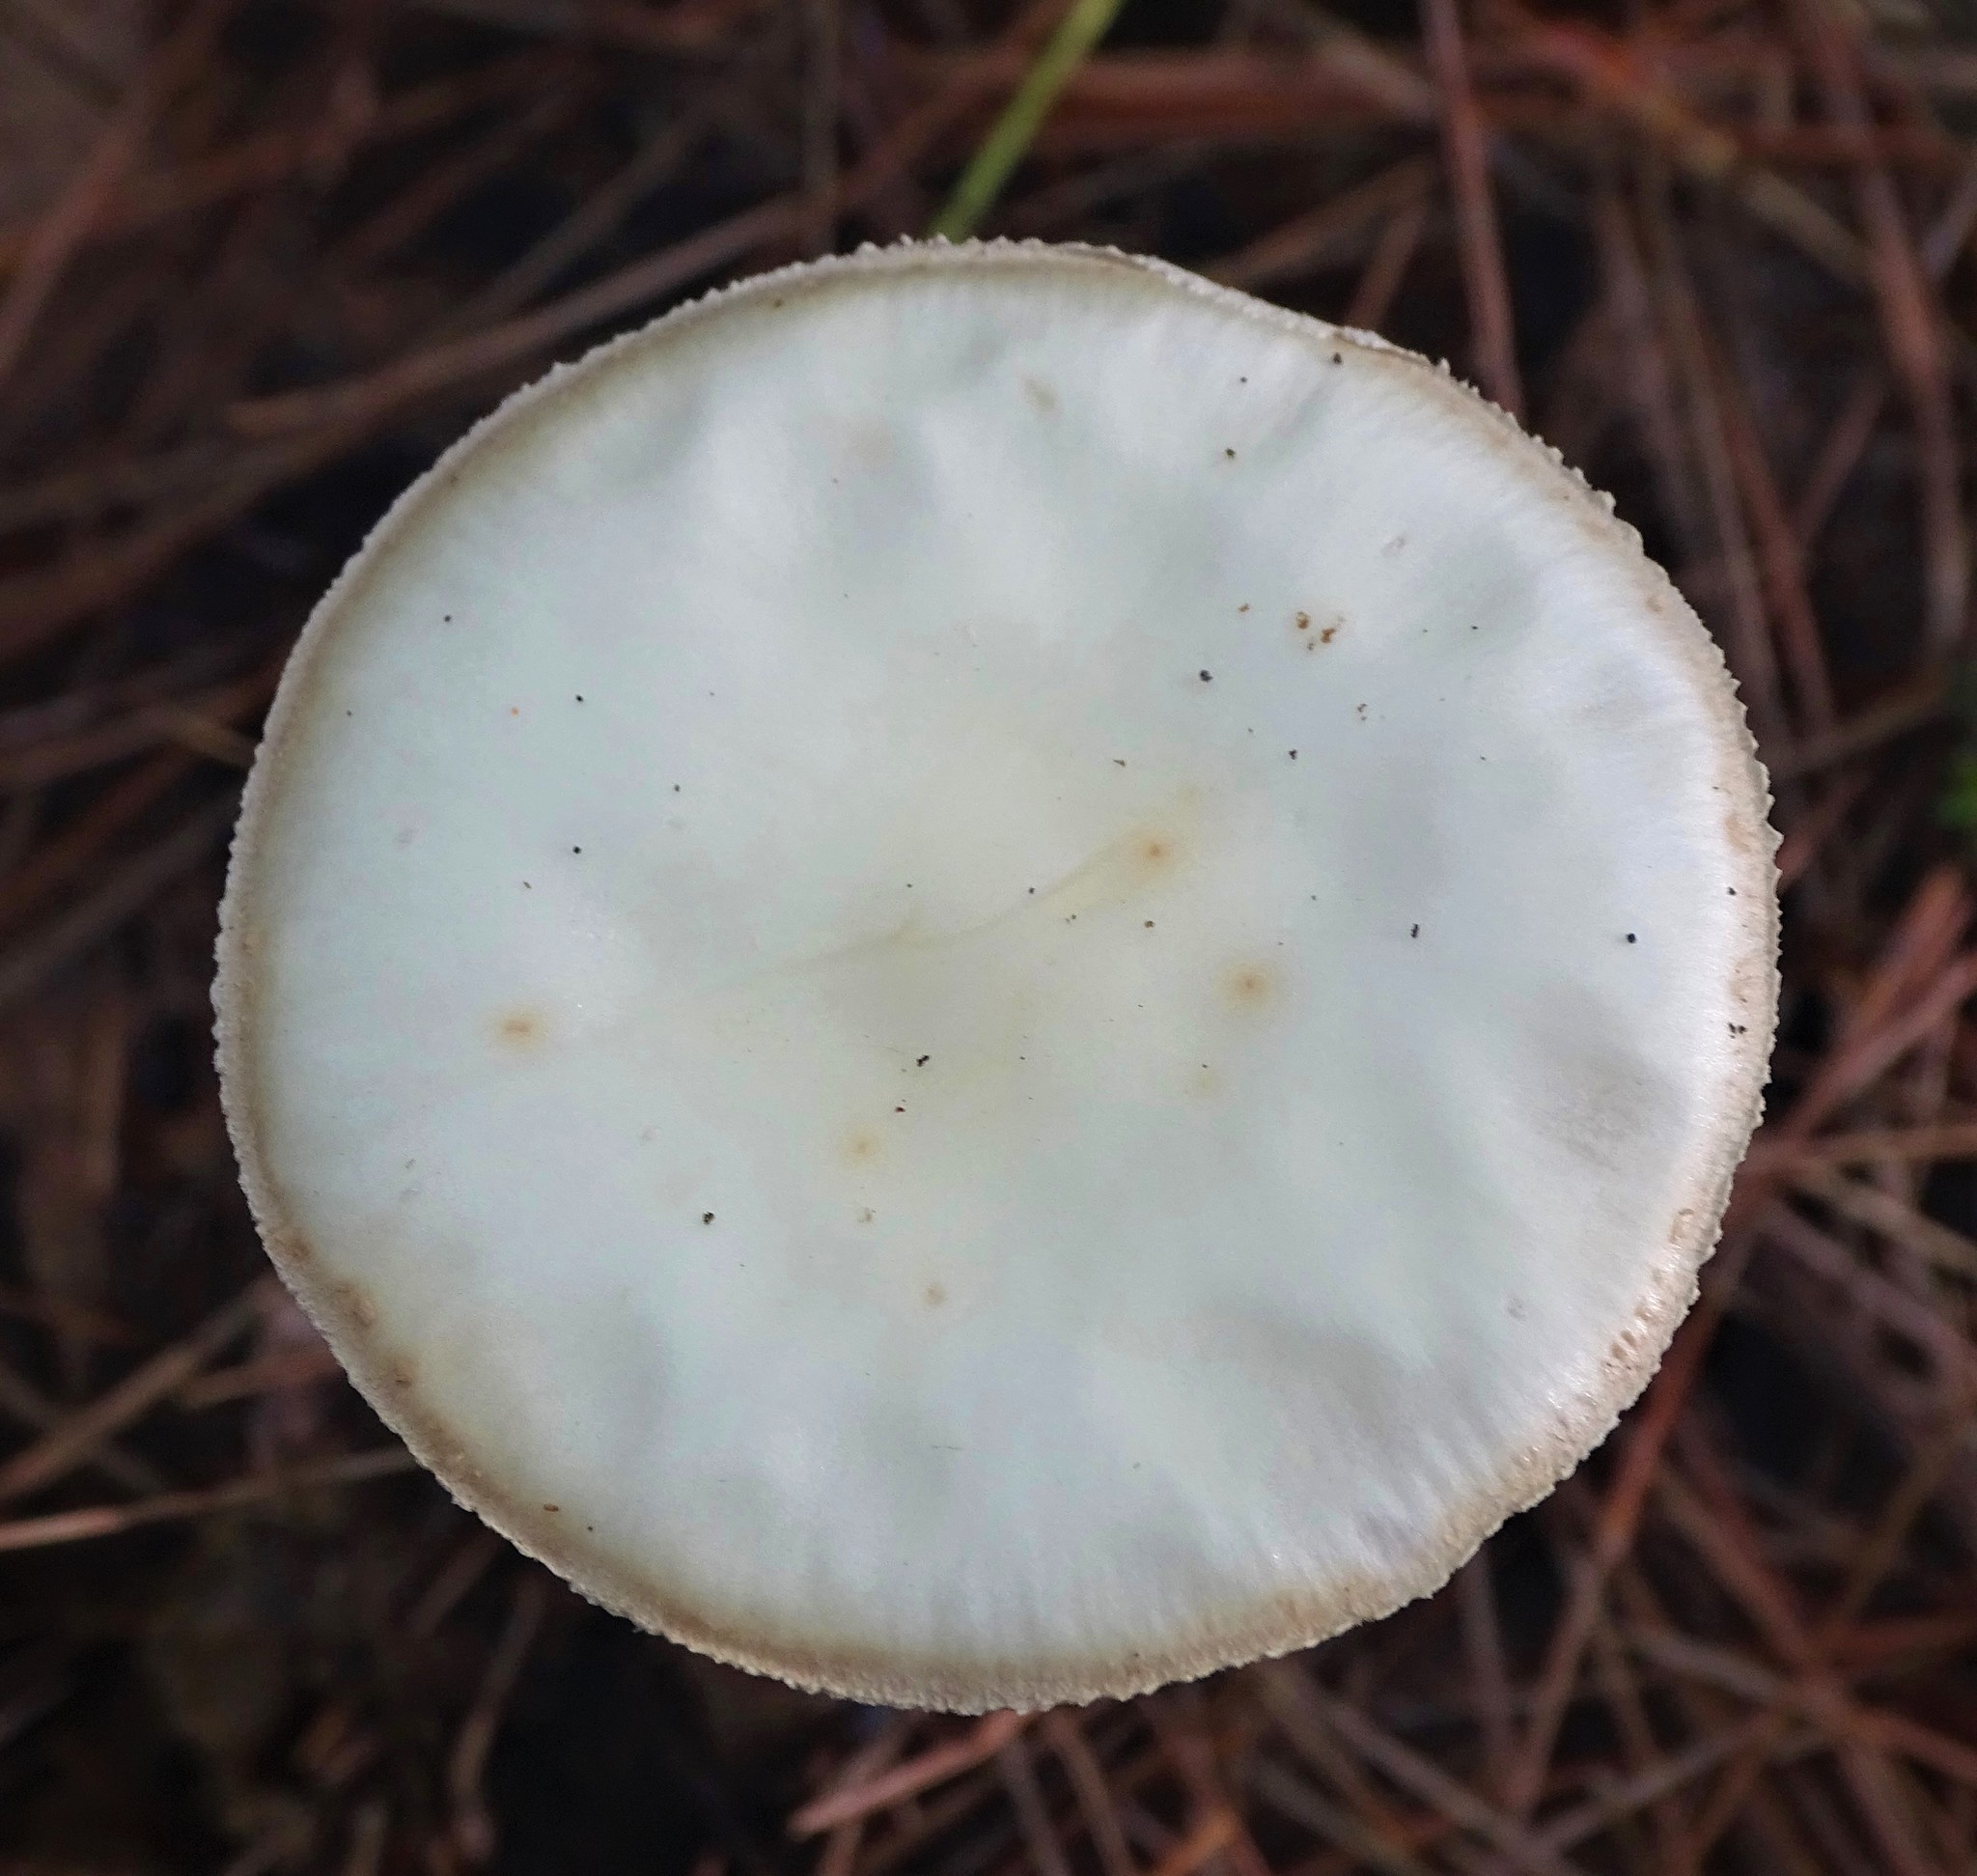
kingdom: Fungi
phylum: Basidiomycota
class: Agaricomycetes
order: Agaricales
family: Amanitaceae
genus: Amanita
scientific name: Amanita lavendula
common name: Coker's lavender staining amanita
